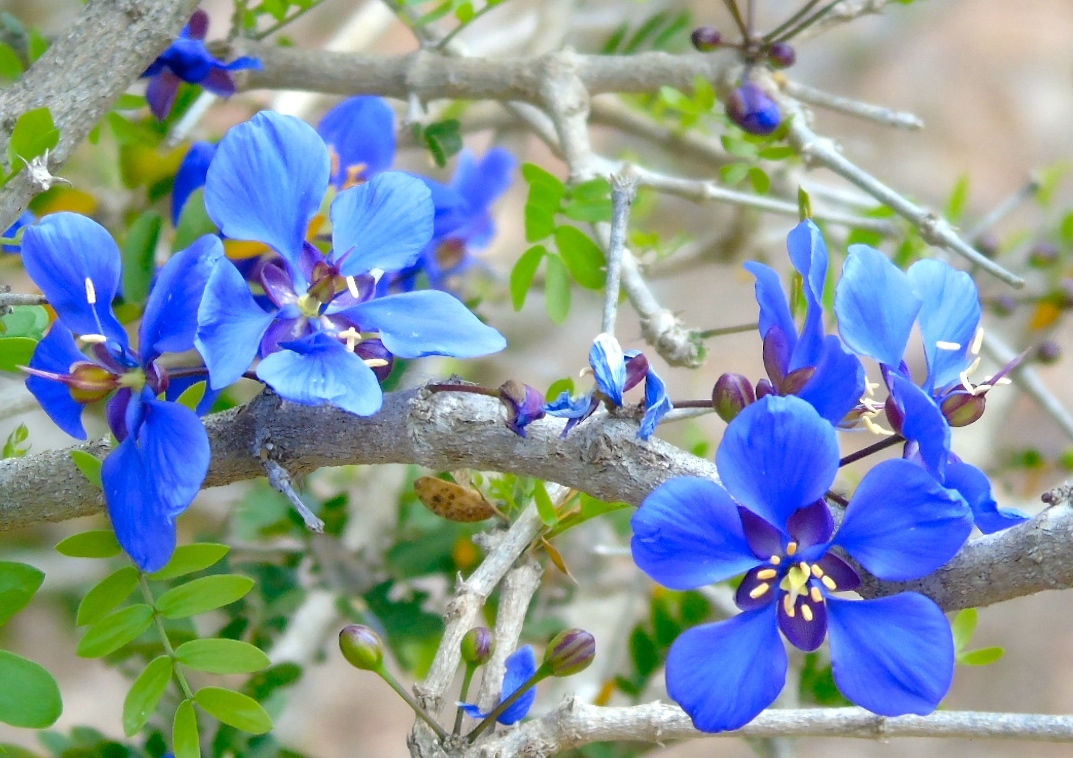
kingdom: Plantae
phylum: Tracheophyta
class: Magnoliopsida
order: Zygophyllales
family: Zygophyllaceae
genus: Guaiacum
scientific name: Guaiacum coulteri
